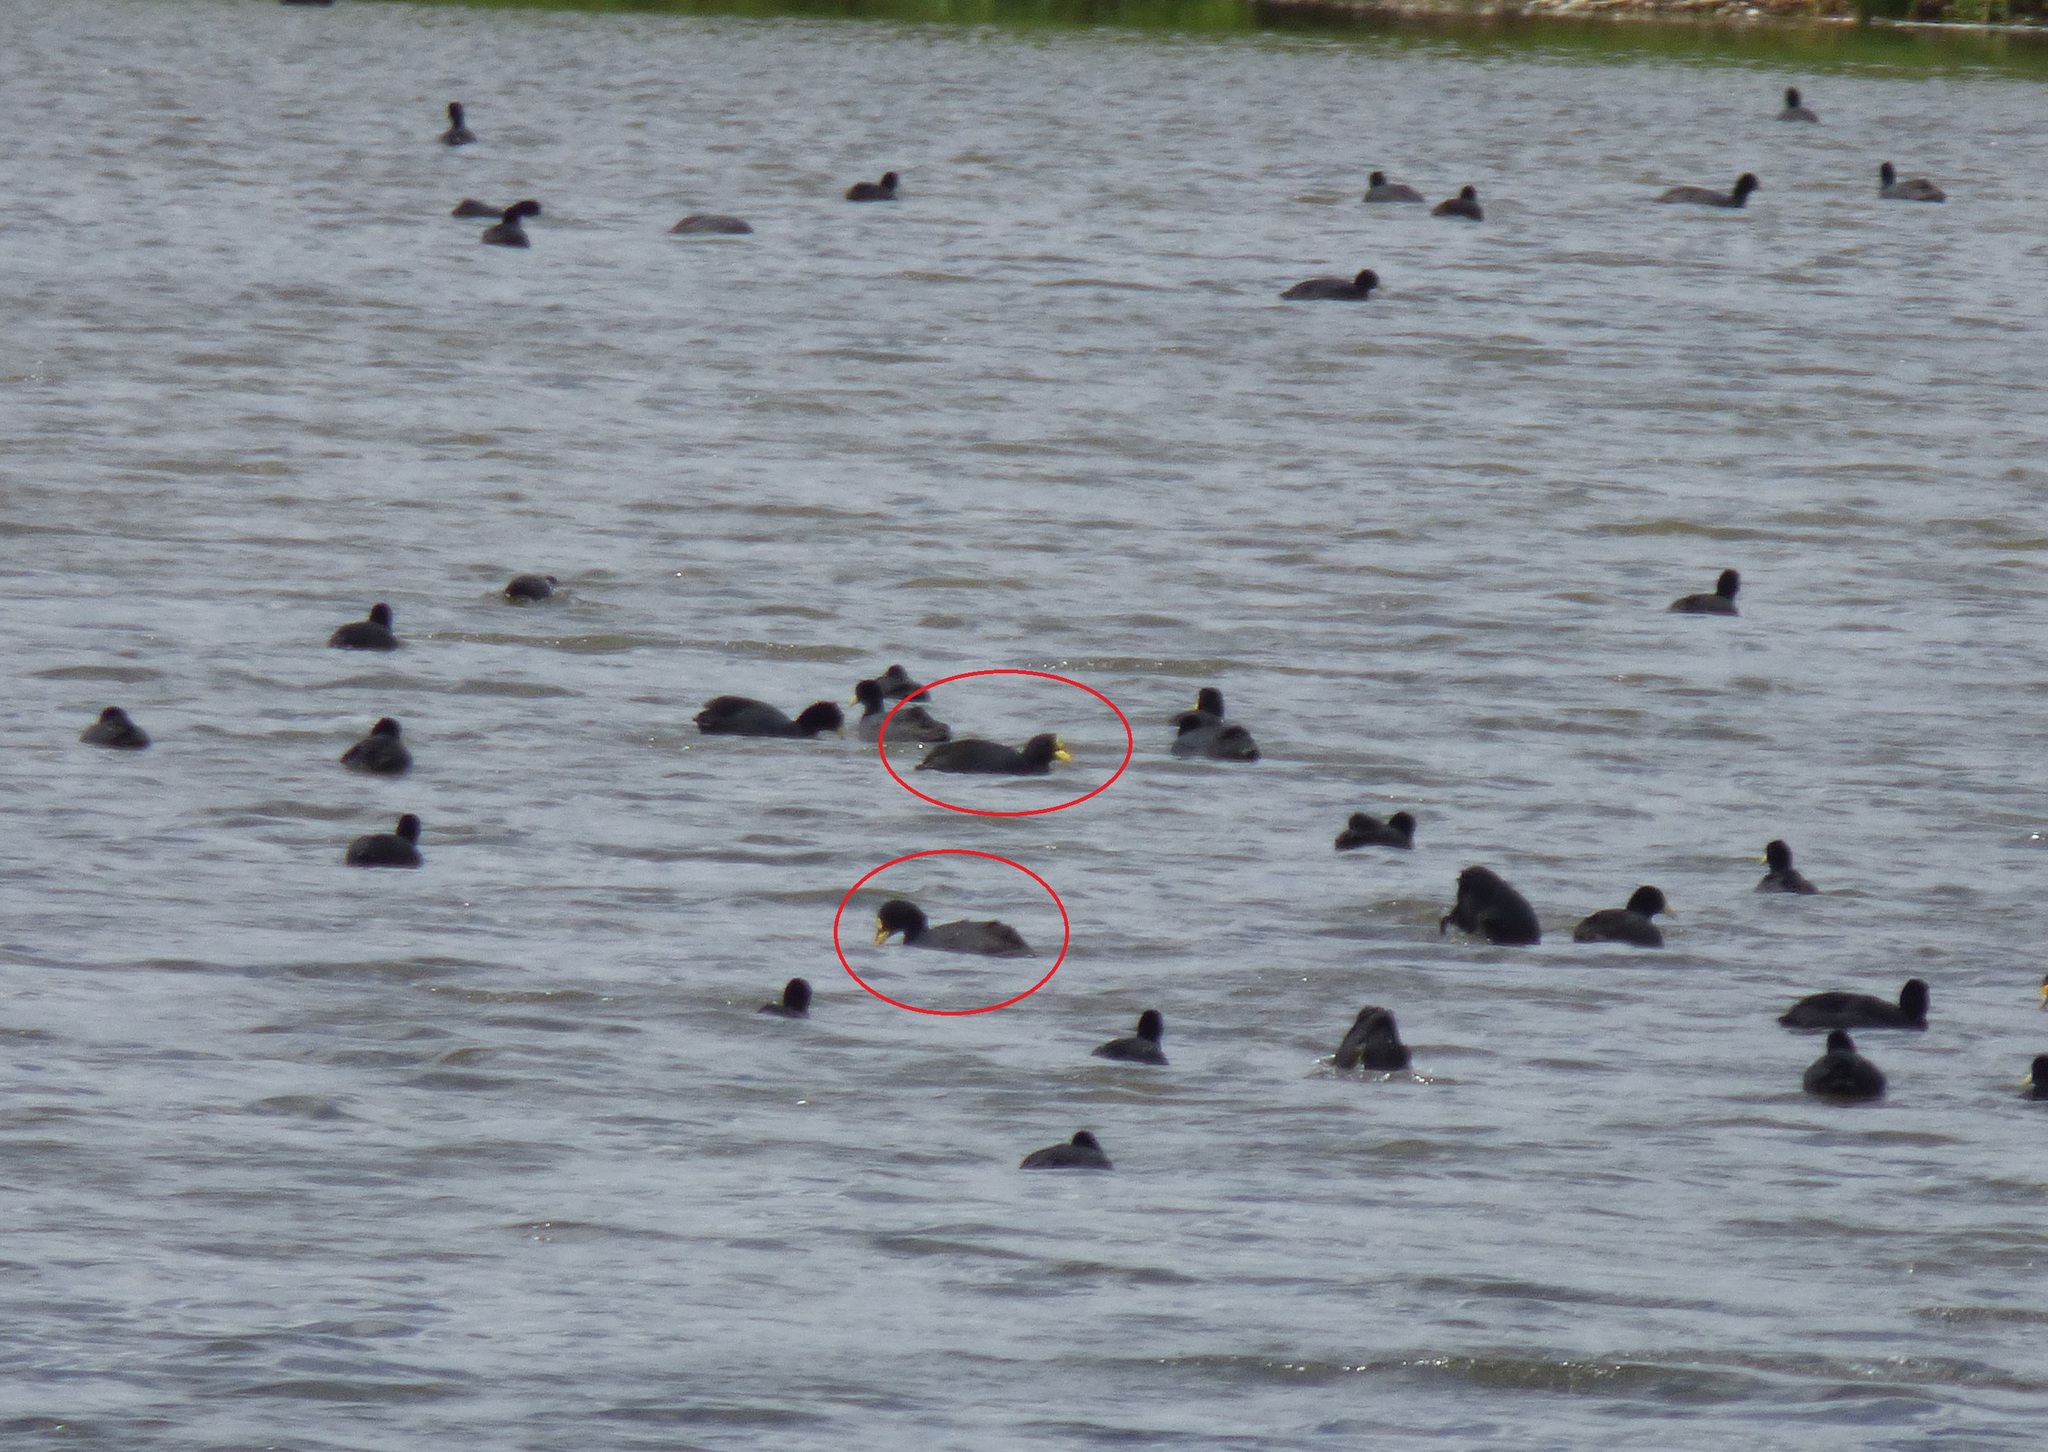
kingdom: Animalia
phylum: Chordata
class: Aves
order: Gruiformes
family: Rallidae
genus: Fulica
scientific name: Fulica armillata
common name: Red-gartered coot
